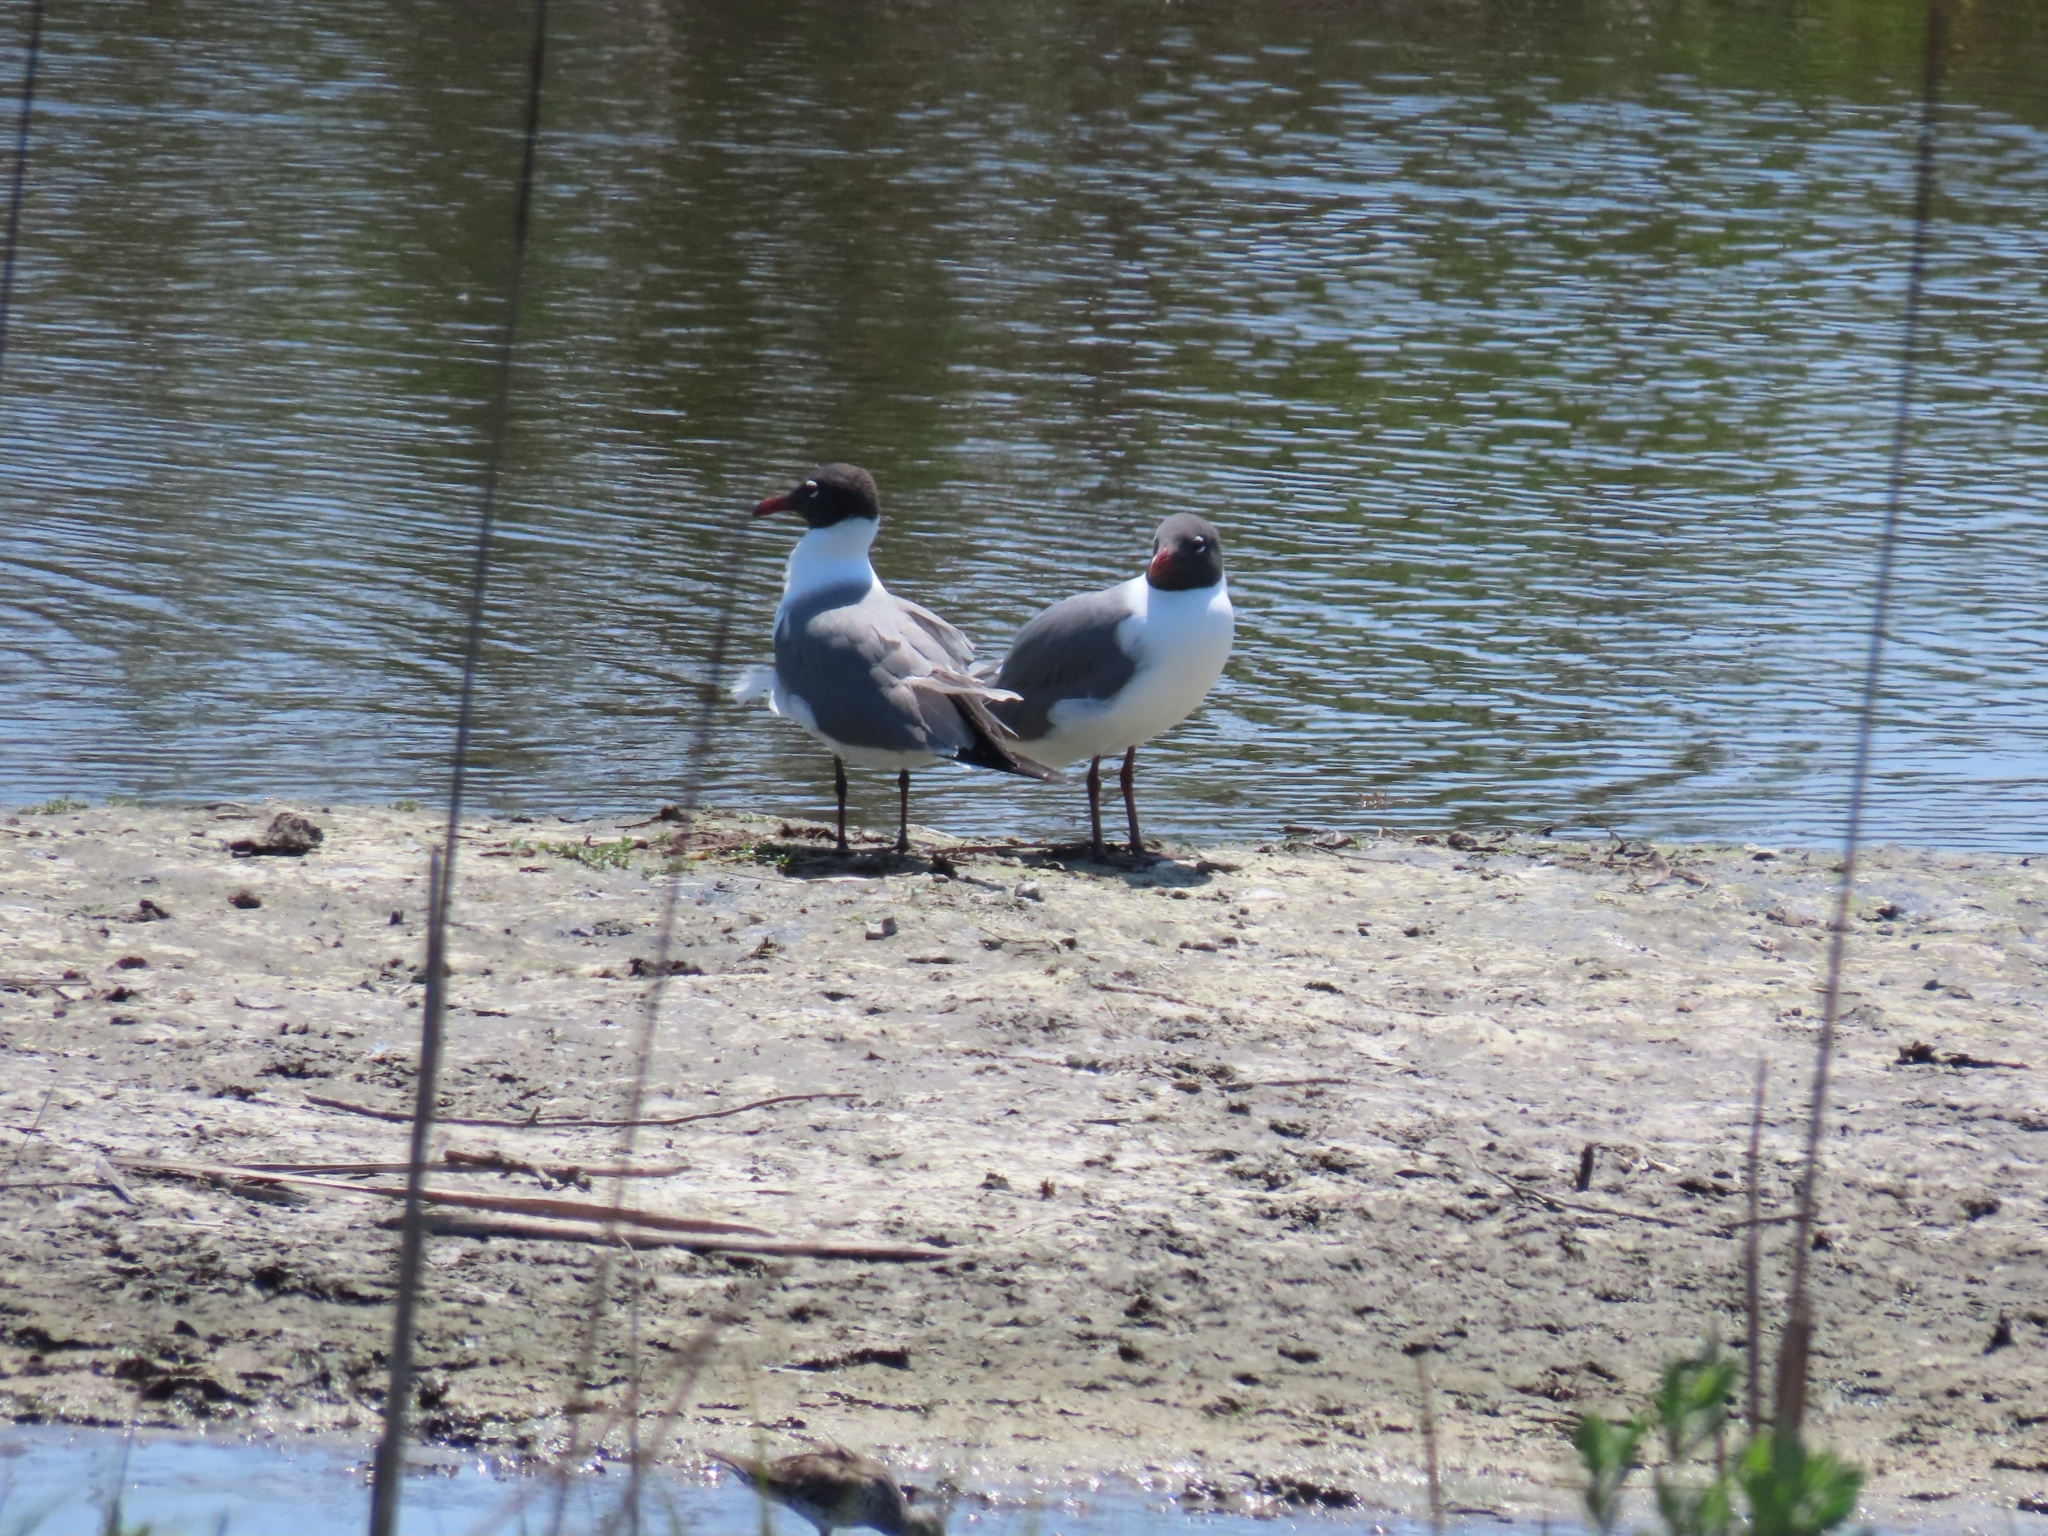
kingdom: Animalia
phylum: Chordata
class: Aves
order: Charadriiformes
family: Laridae
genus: Leucophaeus
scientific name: Leucophaeus atricilla
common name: Laughing gull
